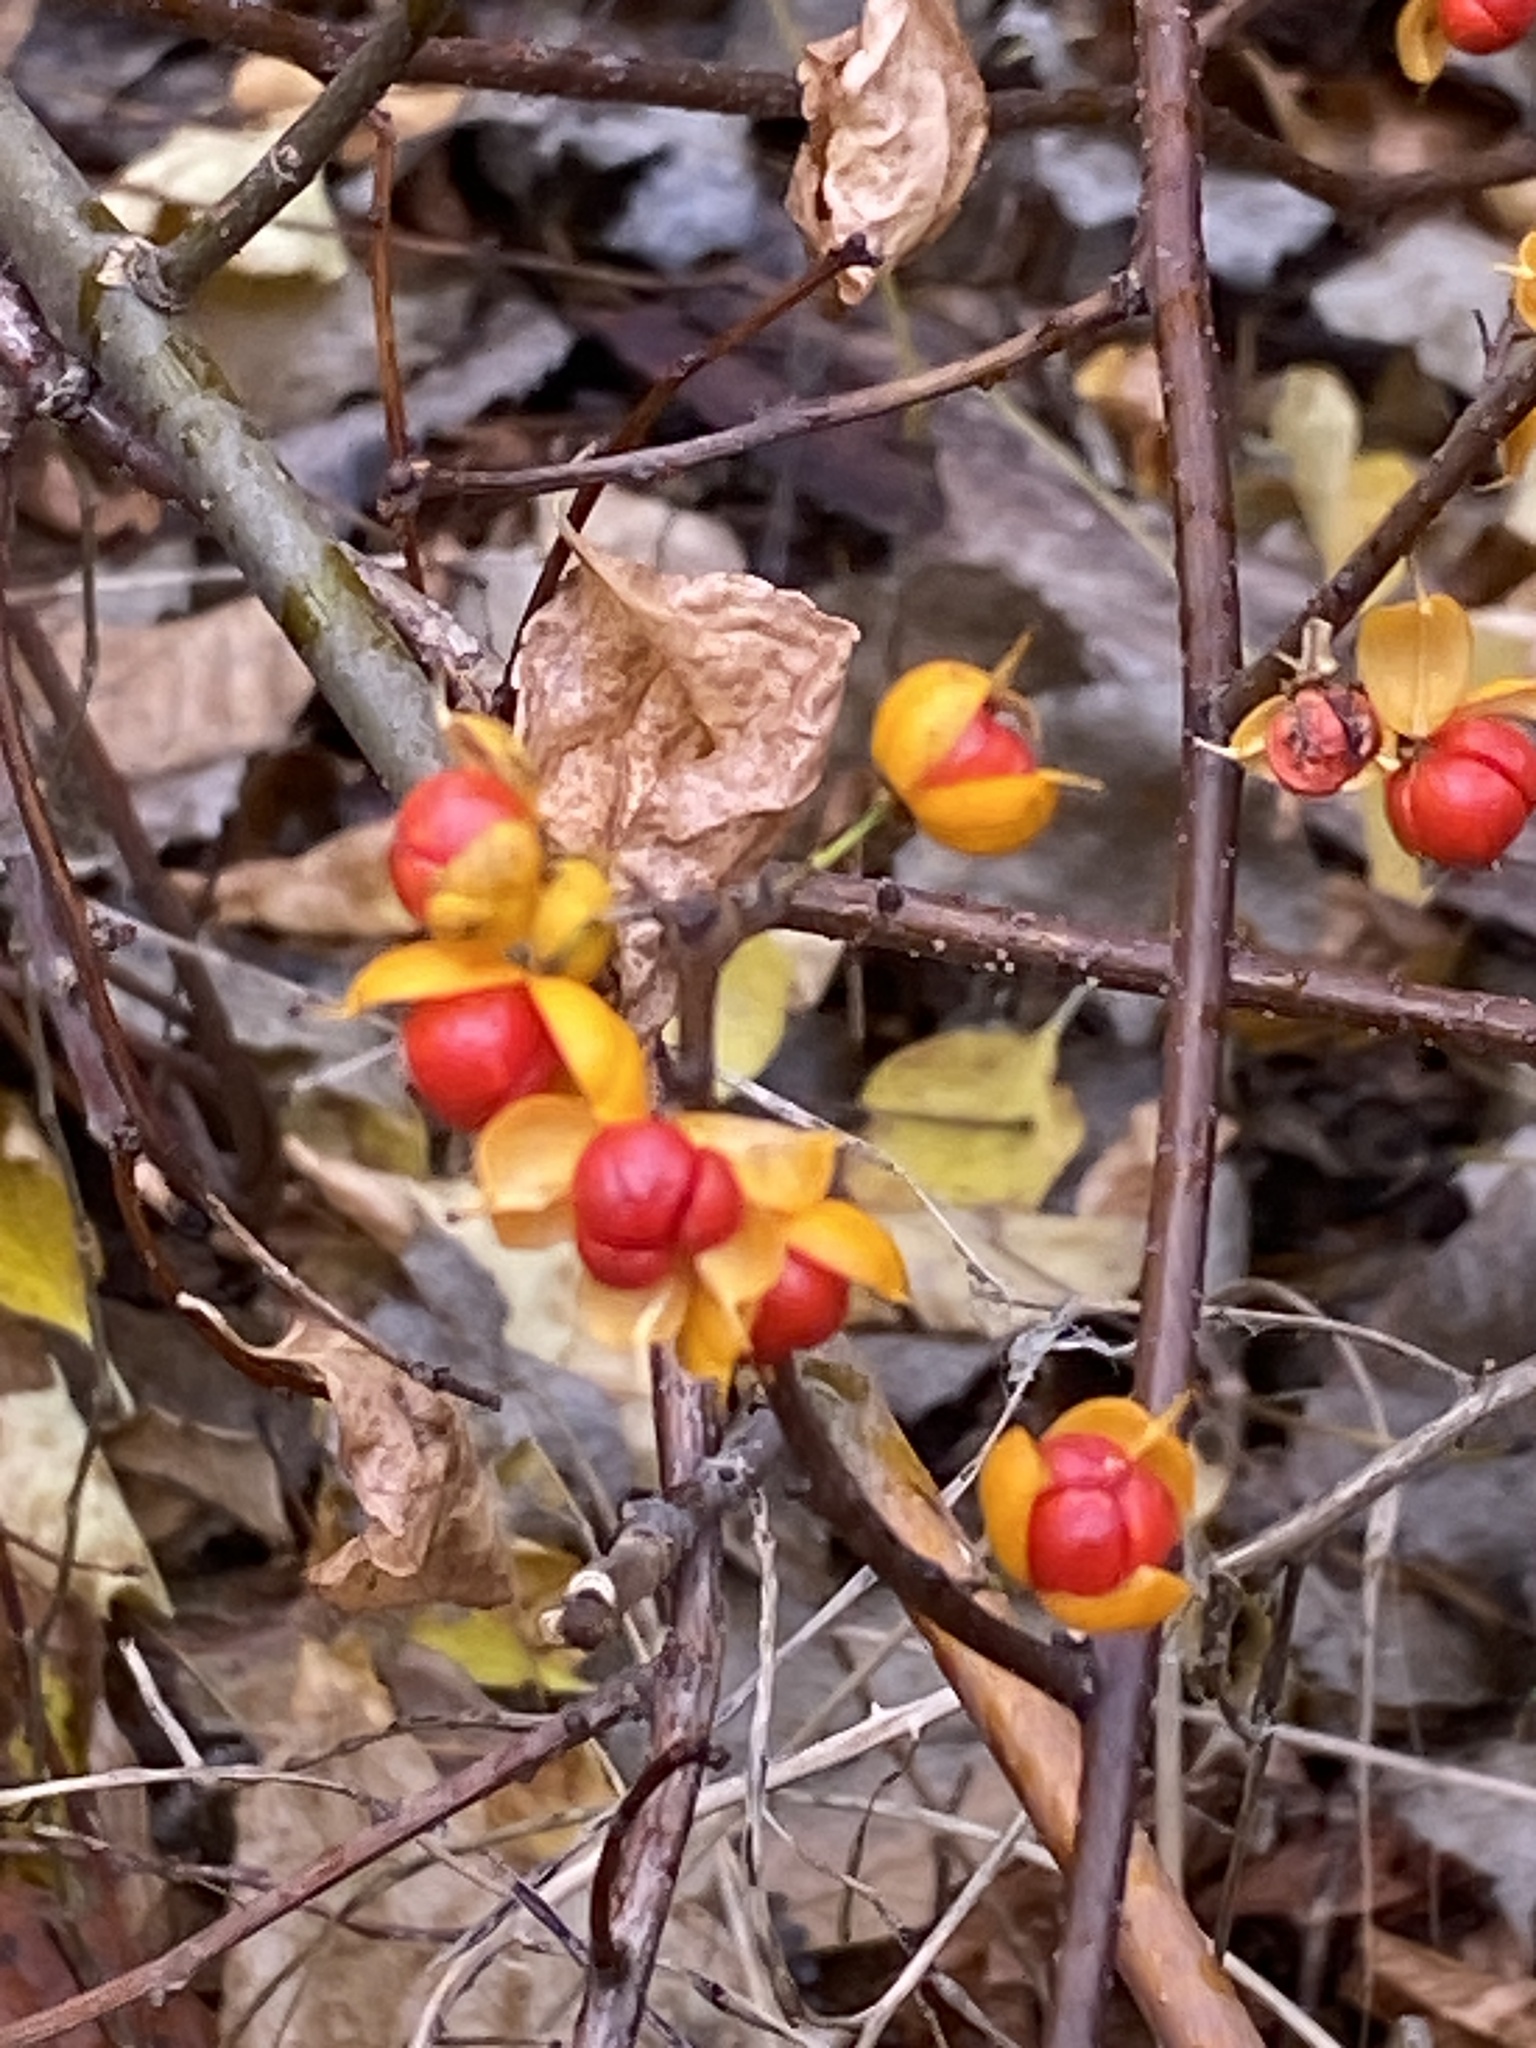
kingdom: Plantae
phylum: Tracheophyta
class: Magnoliopsida
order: Celastrales
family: Celastraceae
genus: Celastrus
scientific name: Celastrus orbiculatus
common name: Oriental bittersweet
